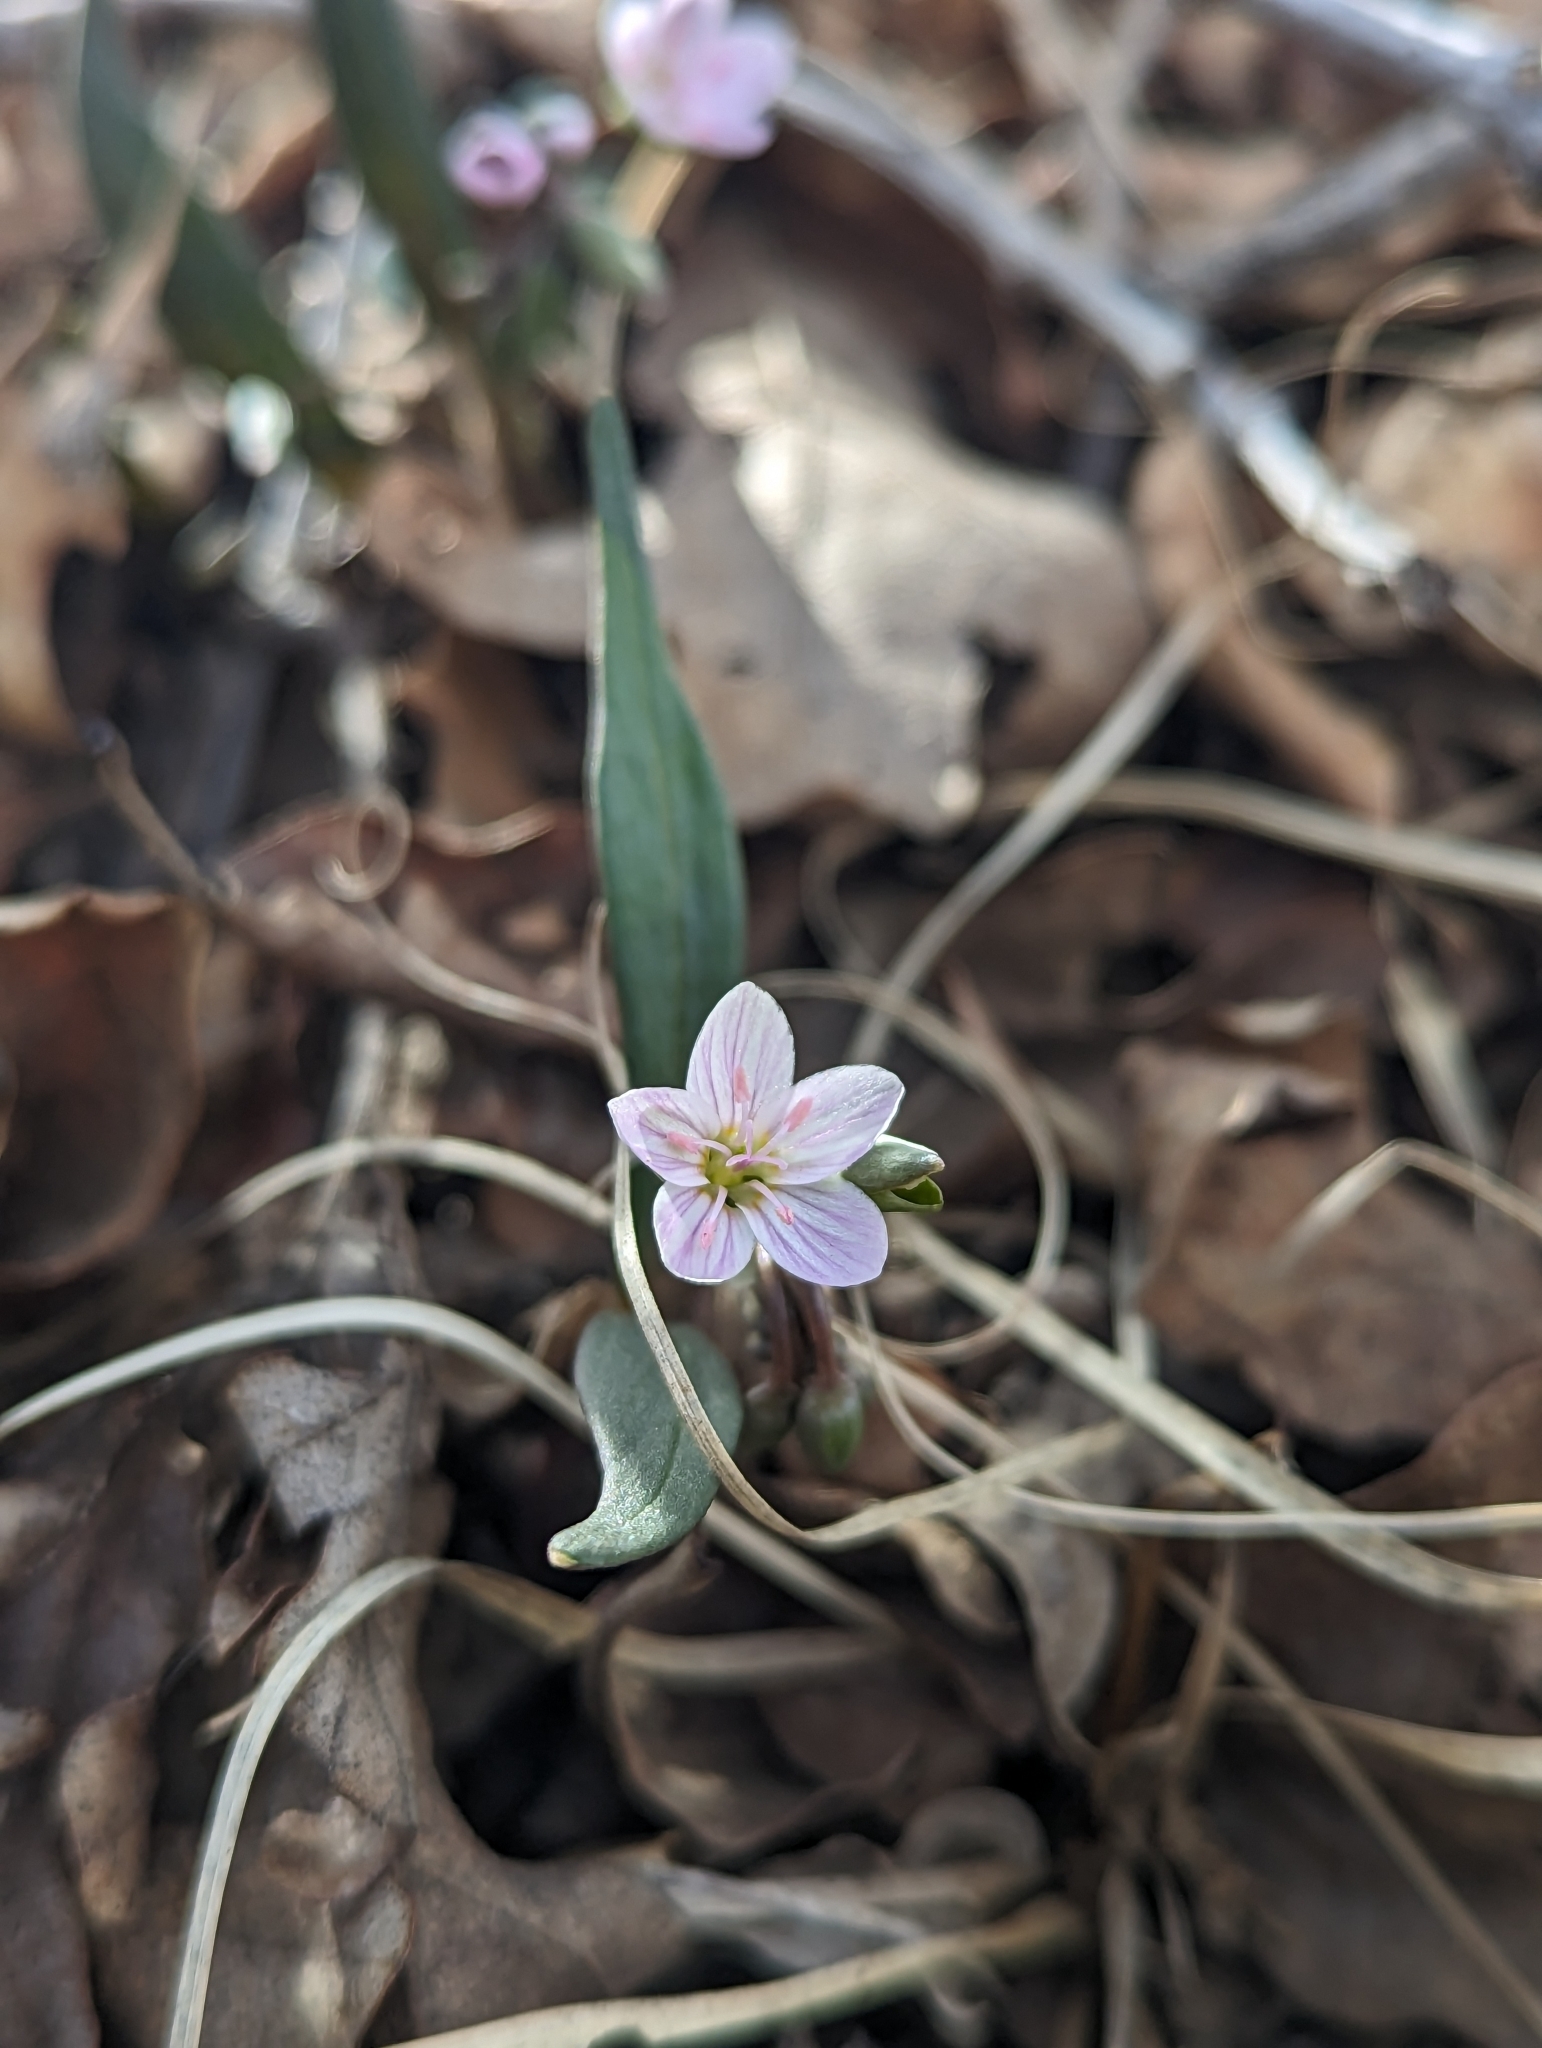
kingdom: Plantae
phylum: Tracheophyta
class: Magnoliopsida
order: Caryophyllales
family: Montiaceae
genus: Claytonia
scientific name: Claytonia rosea
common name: Rocky mountain spring-beauty
